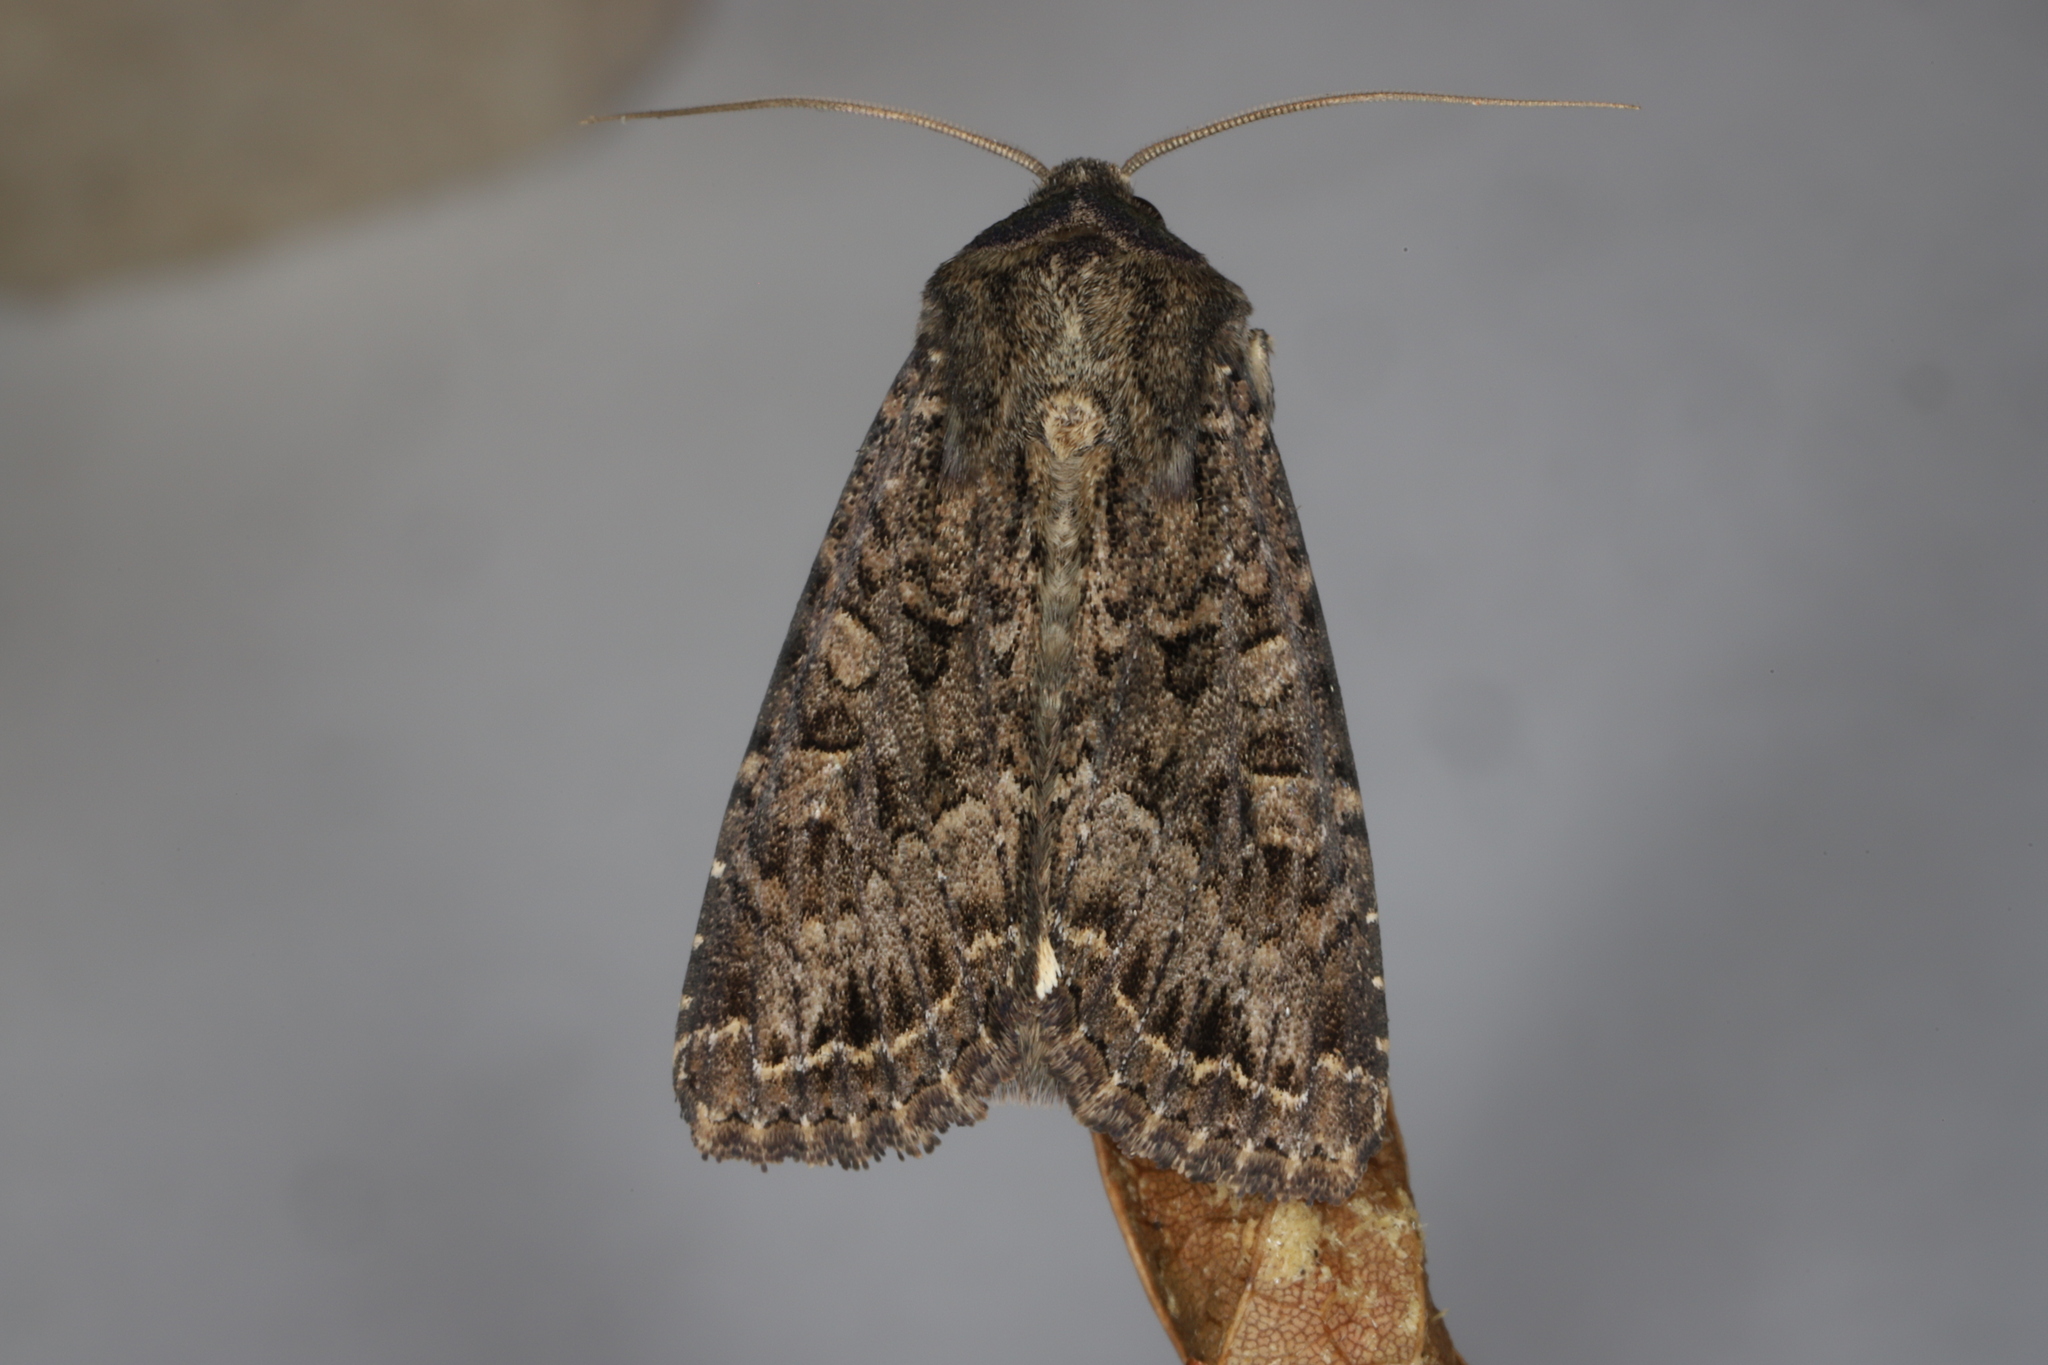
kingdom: Animalia
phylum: Arthropoda
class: Insecta
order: Lepidoptera
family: Noctuidae
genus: Apamea
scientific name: Apamea devastator
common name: Glassy cutworm
